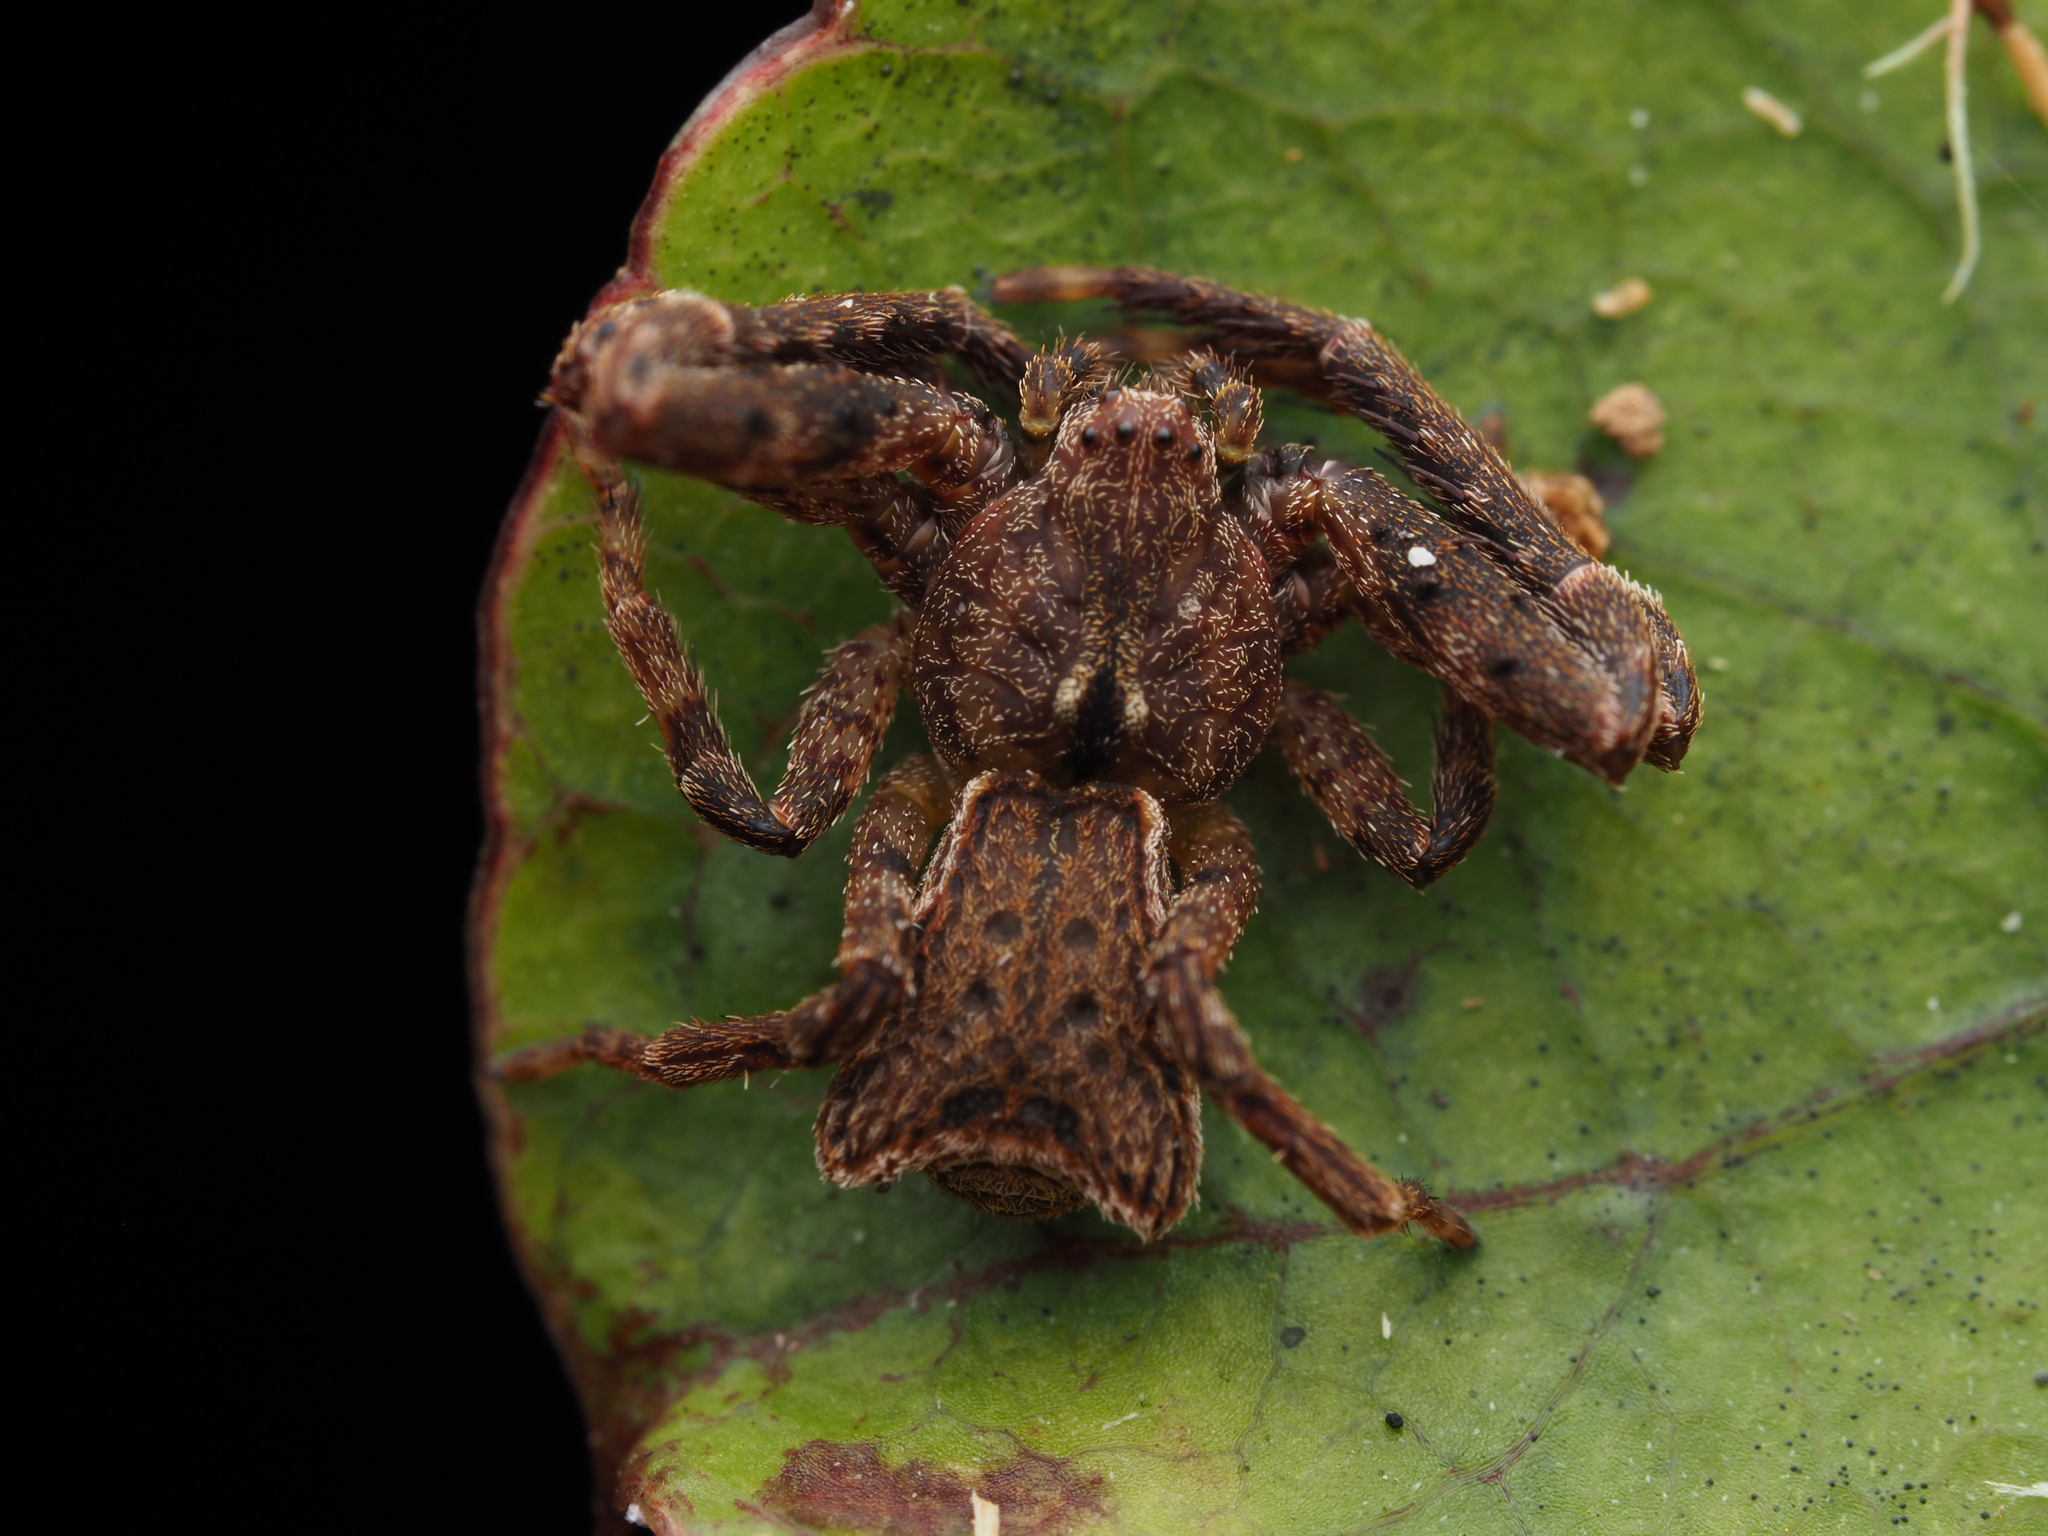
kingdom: Animalia
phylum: Arthropoda
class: Arachnida
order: Araneae
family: Thomisidae
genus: Sidymella
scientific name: Sidymella angularis
